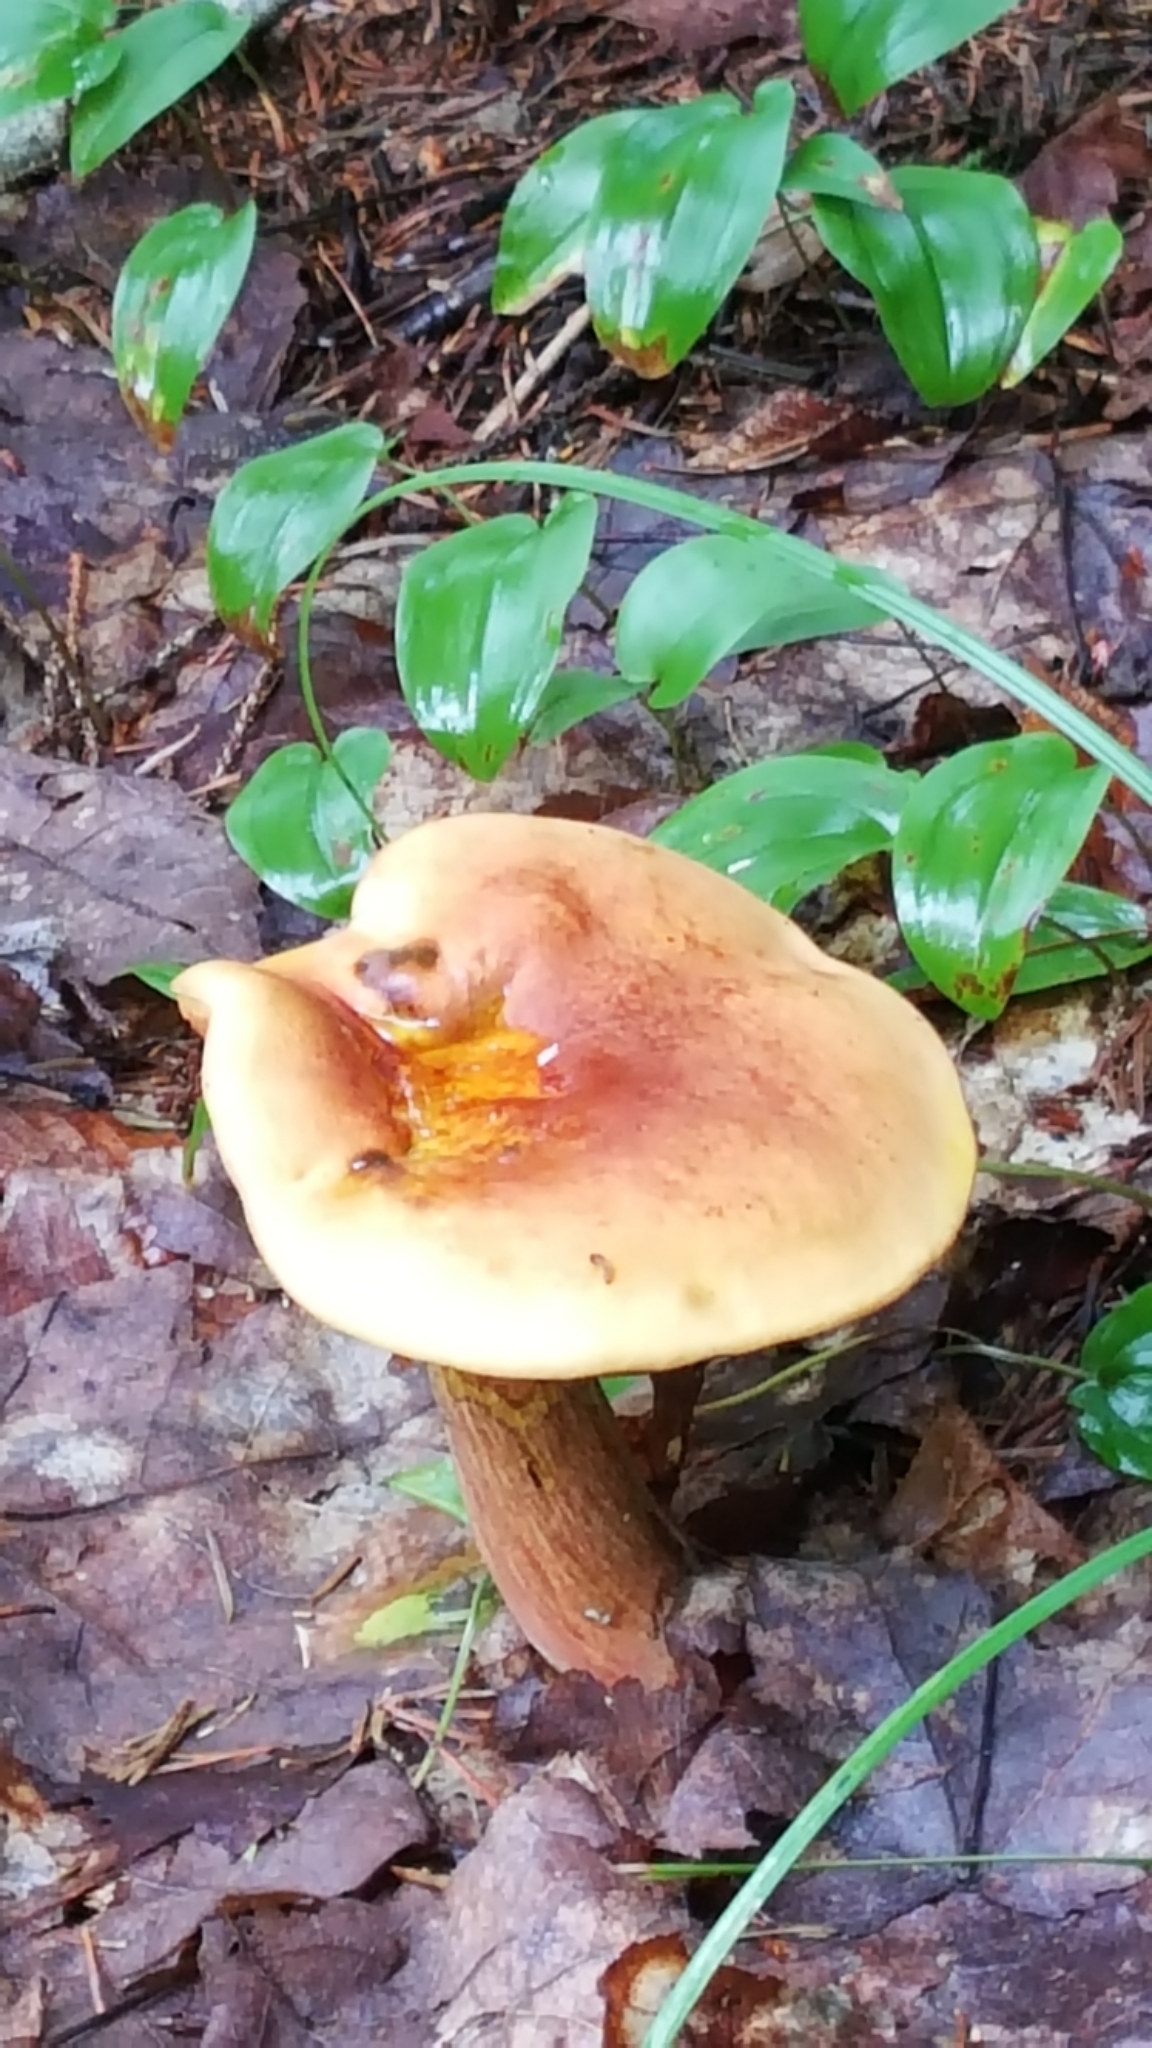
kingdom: Fungi
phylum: Basidiomycota
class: Agaricomycetes
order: Boletales
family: Boletaceae
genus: Boletus
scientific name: Boletus subvelutipes
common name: Red-mouth bolete
